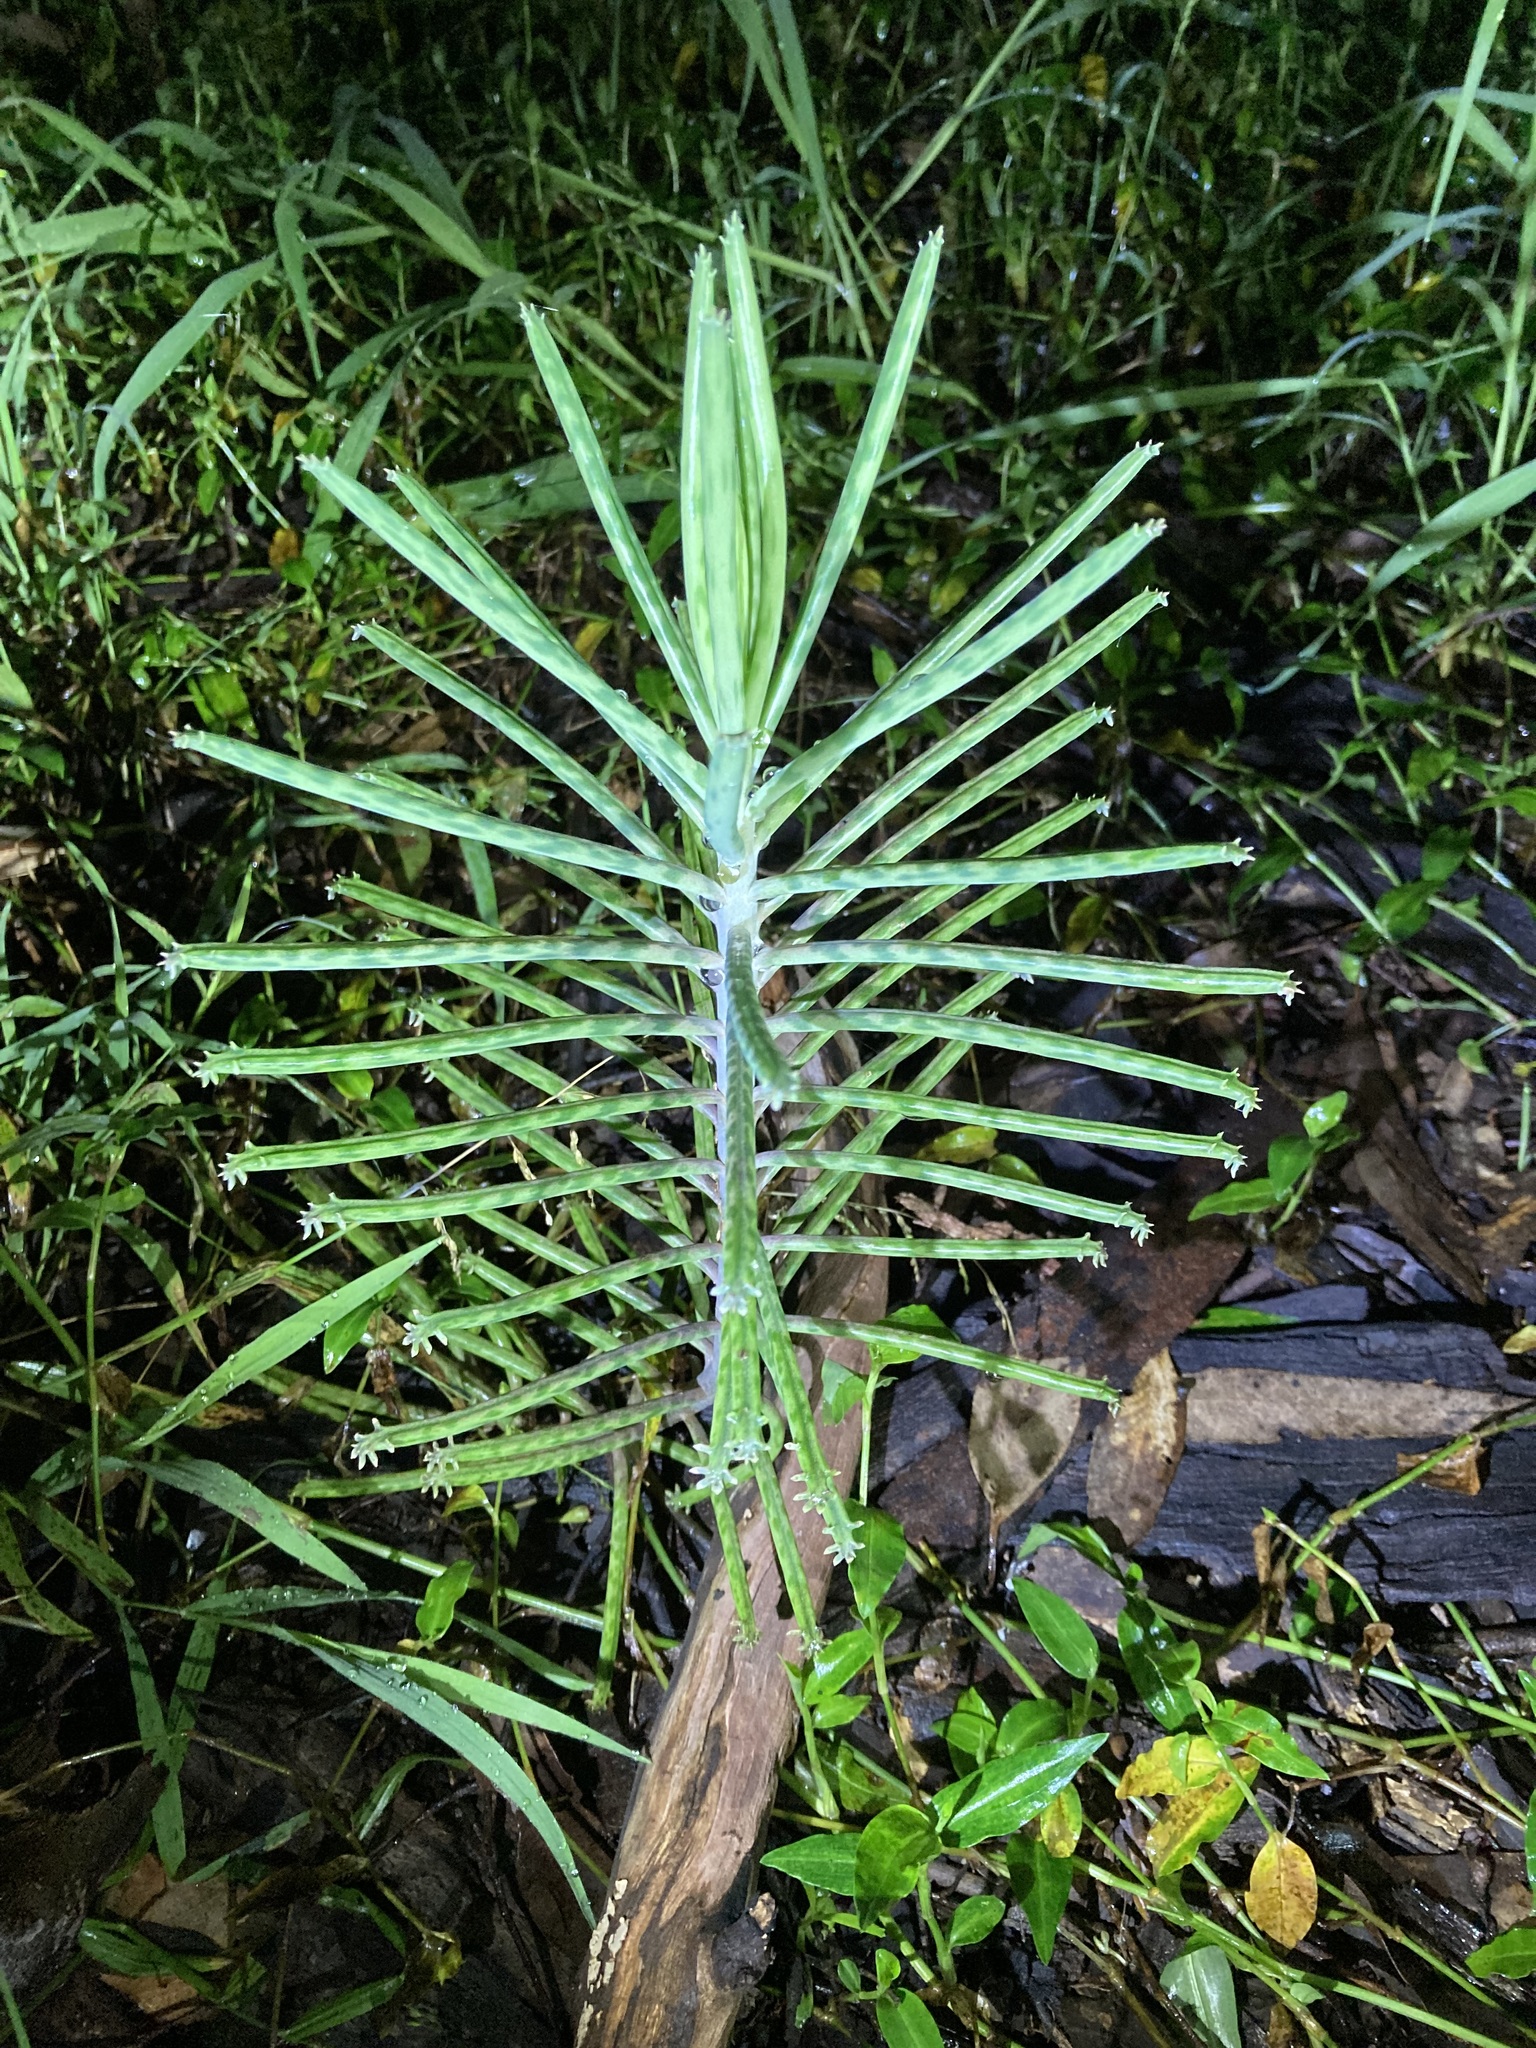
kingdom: Plantae
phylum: Tracheophyta
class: Magnoliopsida
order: Saxifragales
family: Crassulaceae
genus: Kalanchoe
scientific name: Kalanchoe delagoensis
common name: Chandelier plant
